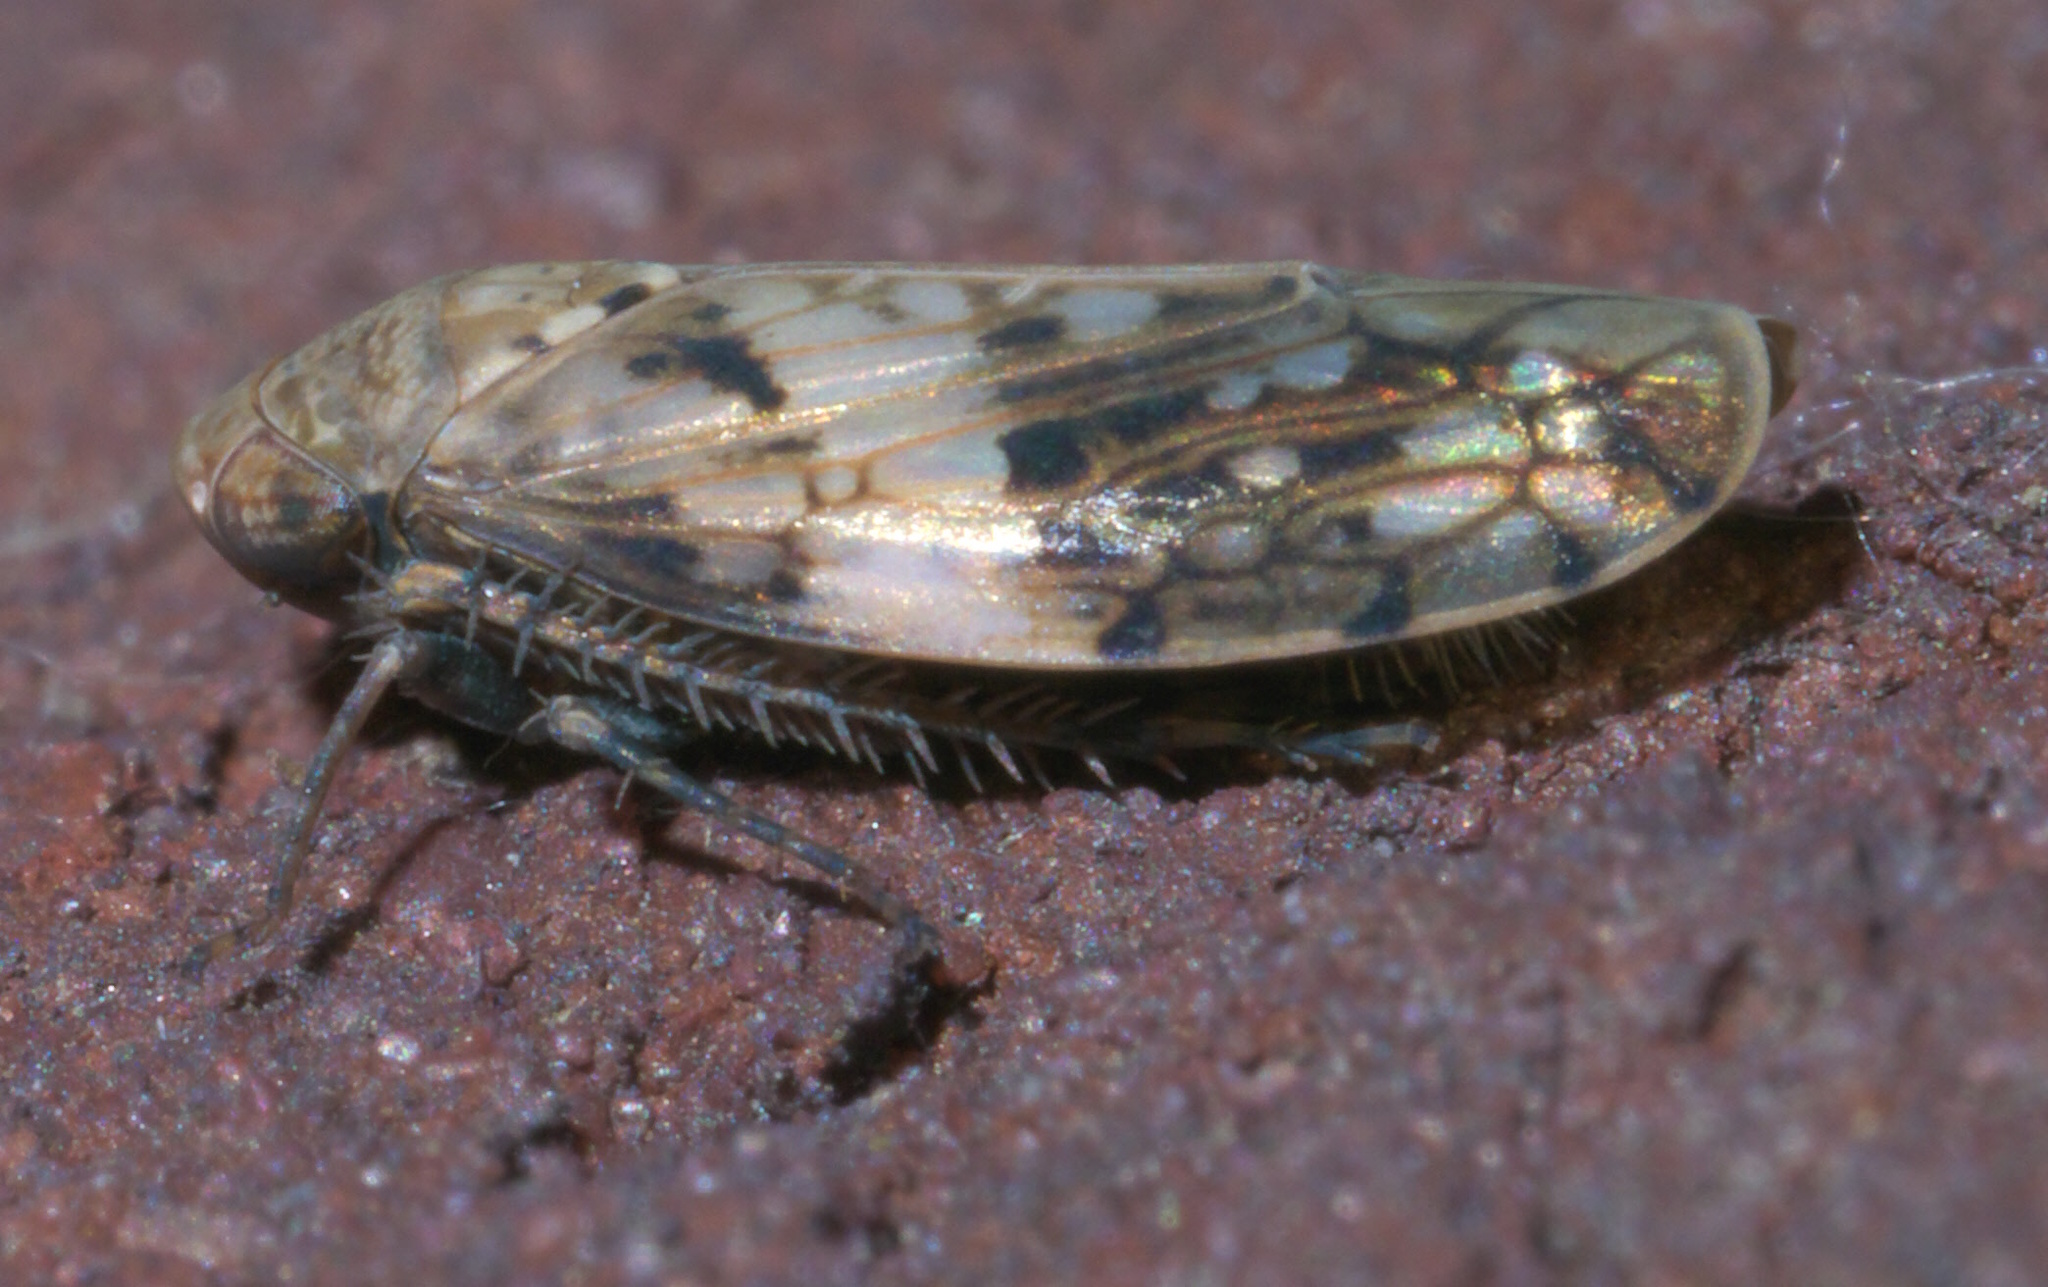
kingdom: Animalia
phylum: Arthropoda
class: Insecta
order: Hemiptera
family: Cicadellidae
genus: Menosoma
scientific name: Menosoma cinctum
